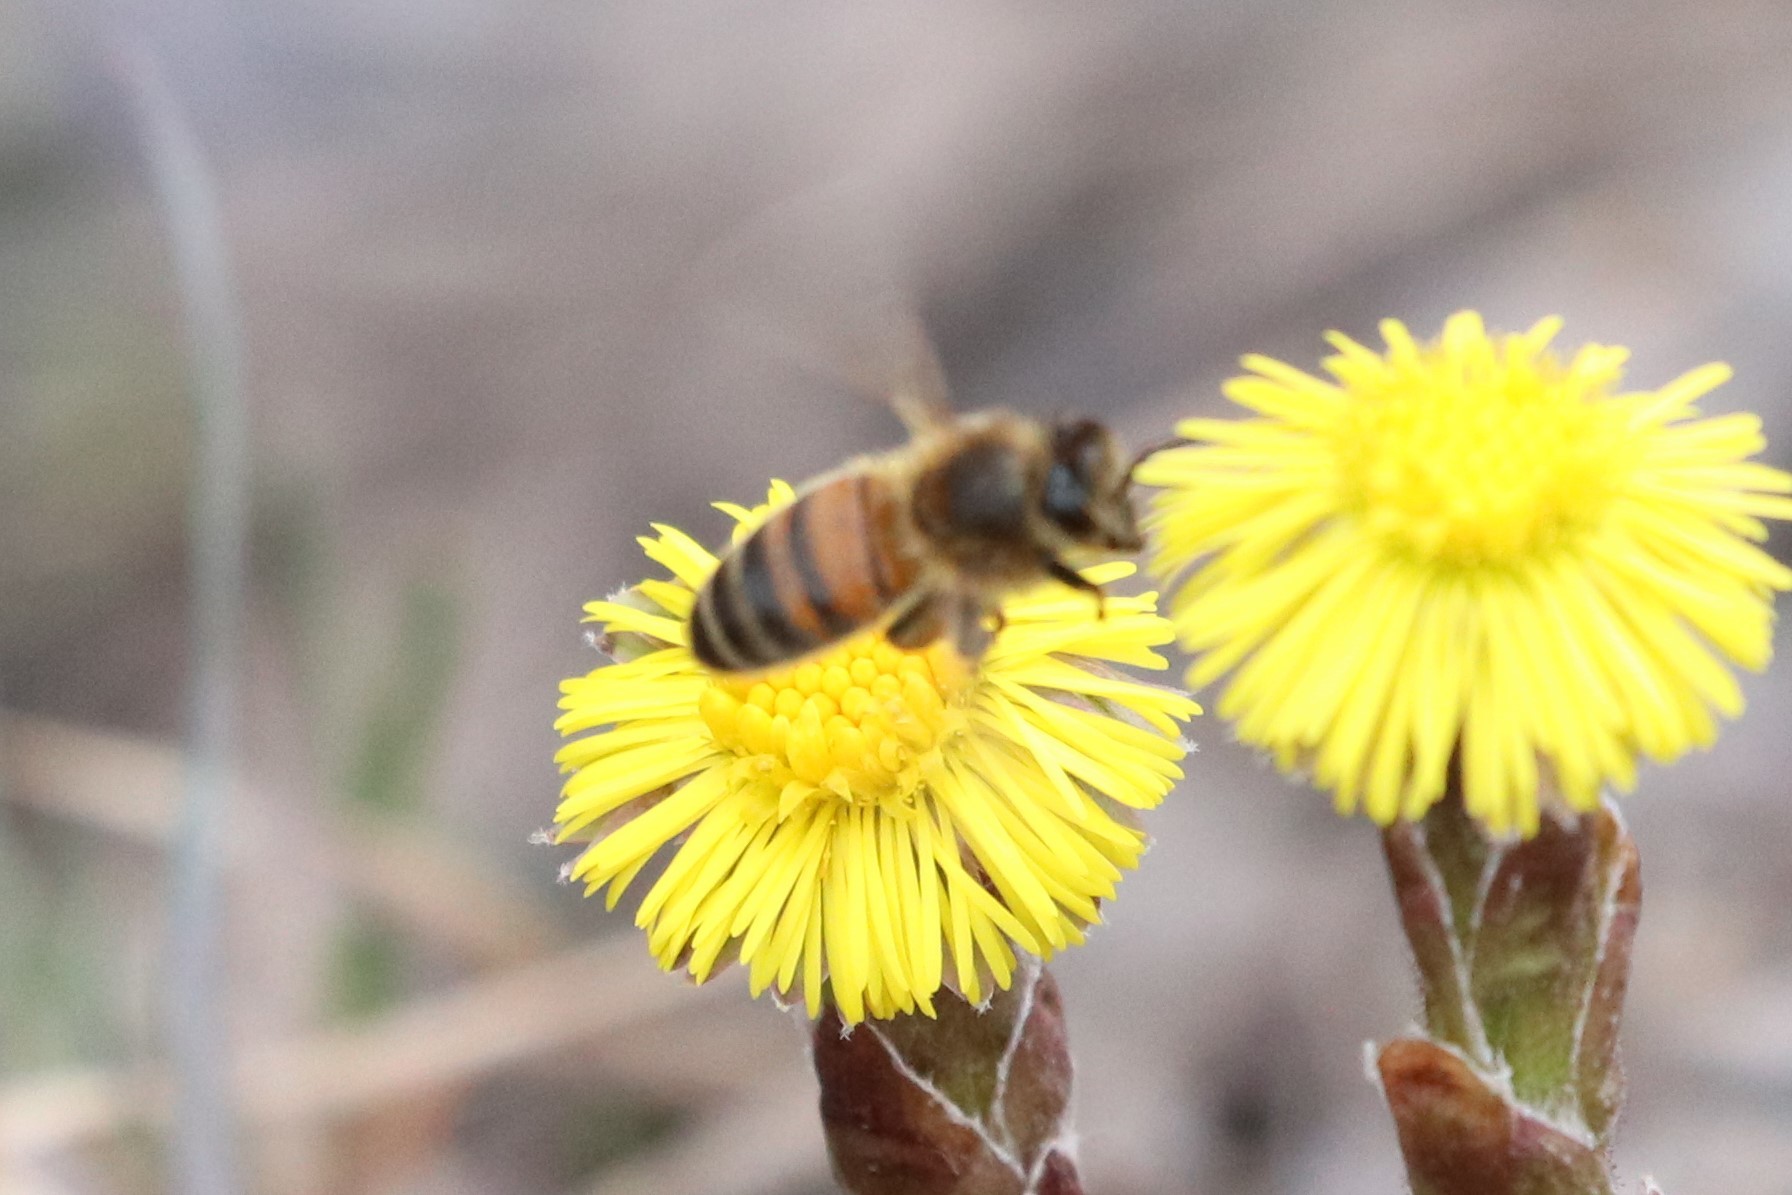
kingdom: Animalia
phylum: Arthropoda
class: Insecta
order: Hymenoptera
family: Apidae
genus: Apis
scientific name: Apis mellifera
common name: Honey bee
